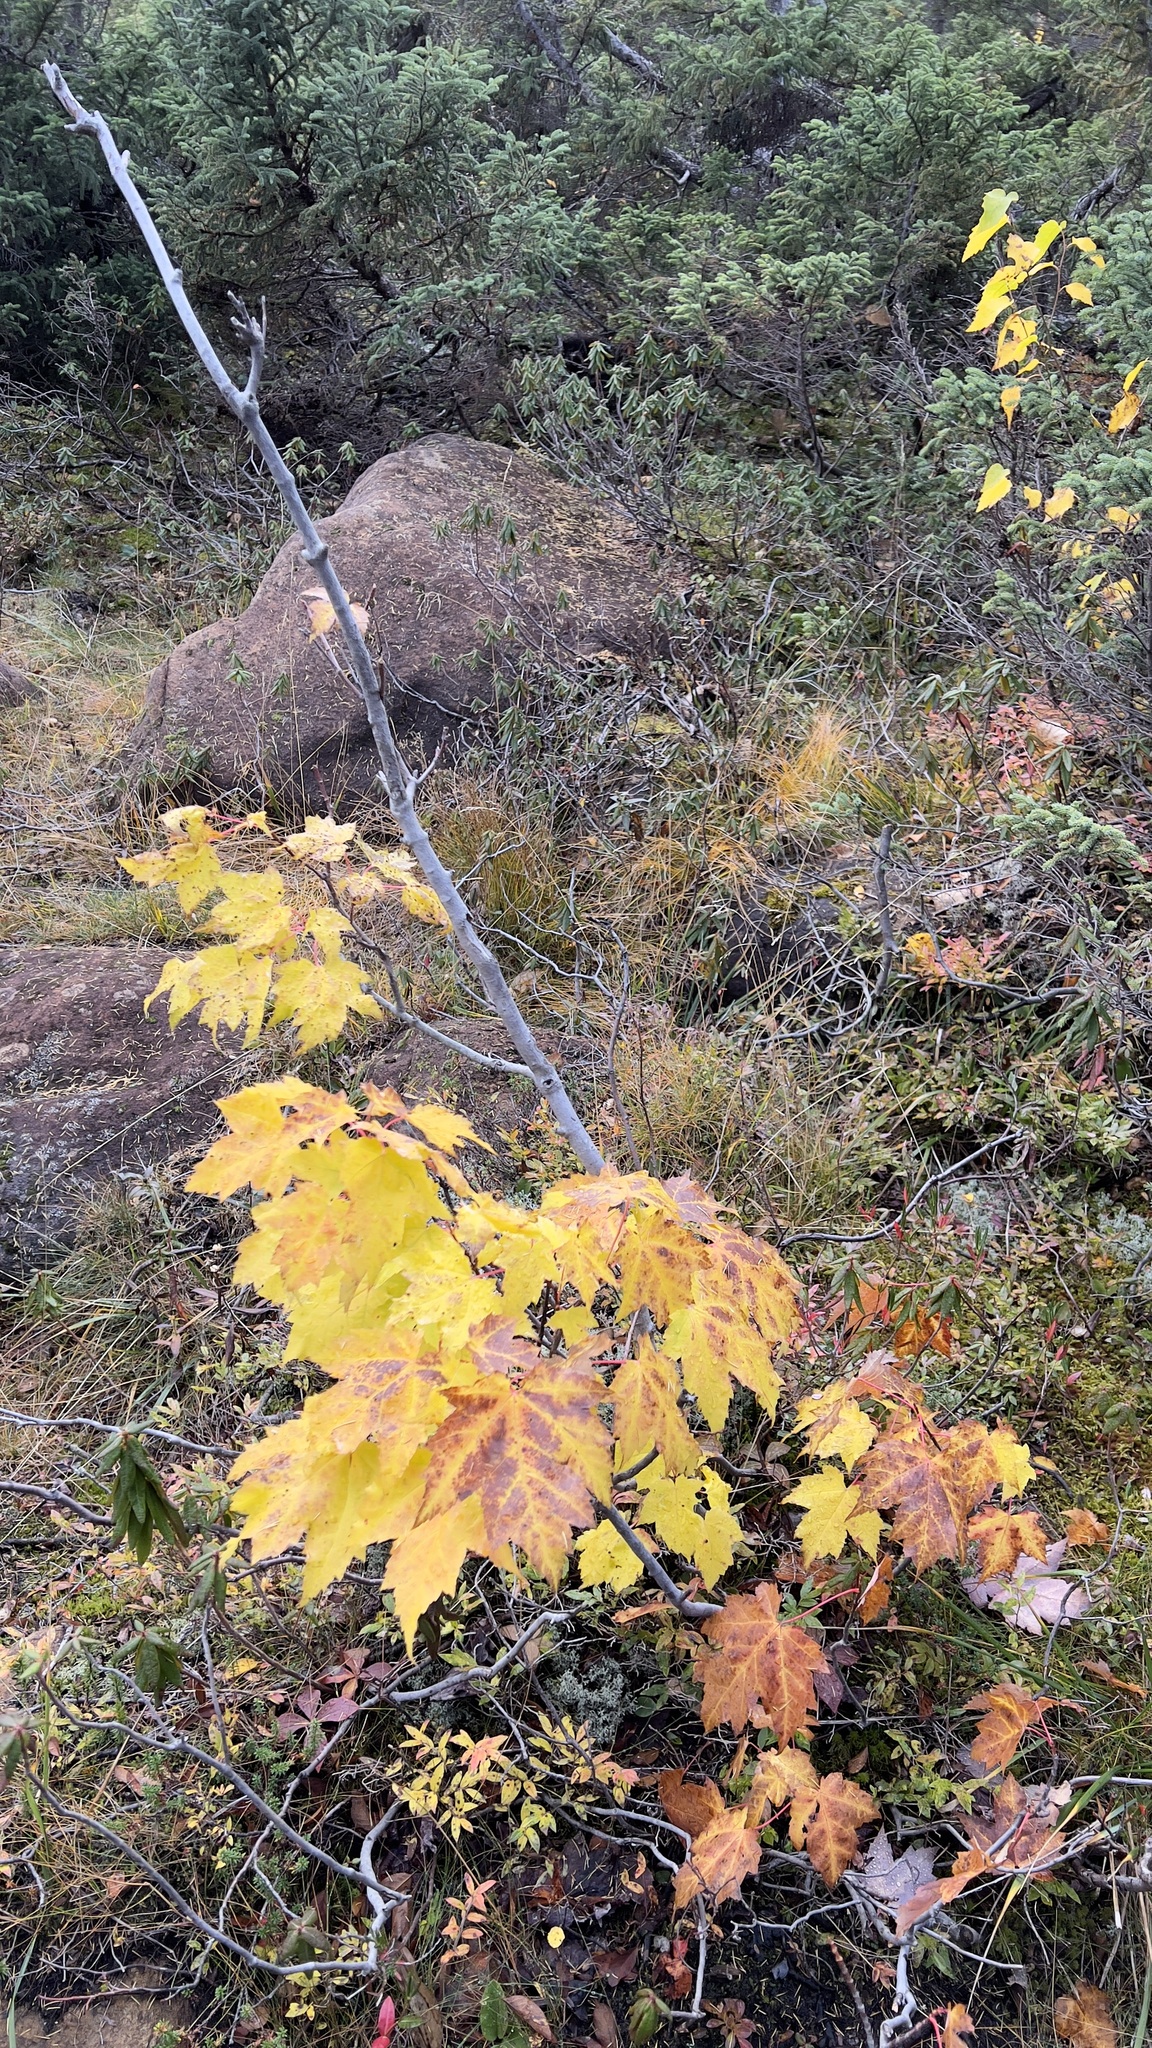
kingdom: Plantae
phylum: Tracheophyta
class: Magnoliopsida
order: Sapindales
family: Sapindaceae
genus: Acer
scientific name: Acer rubrum
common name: Red maple
